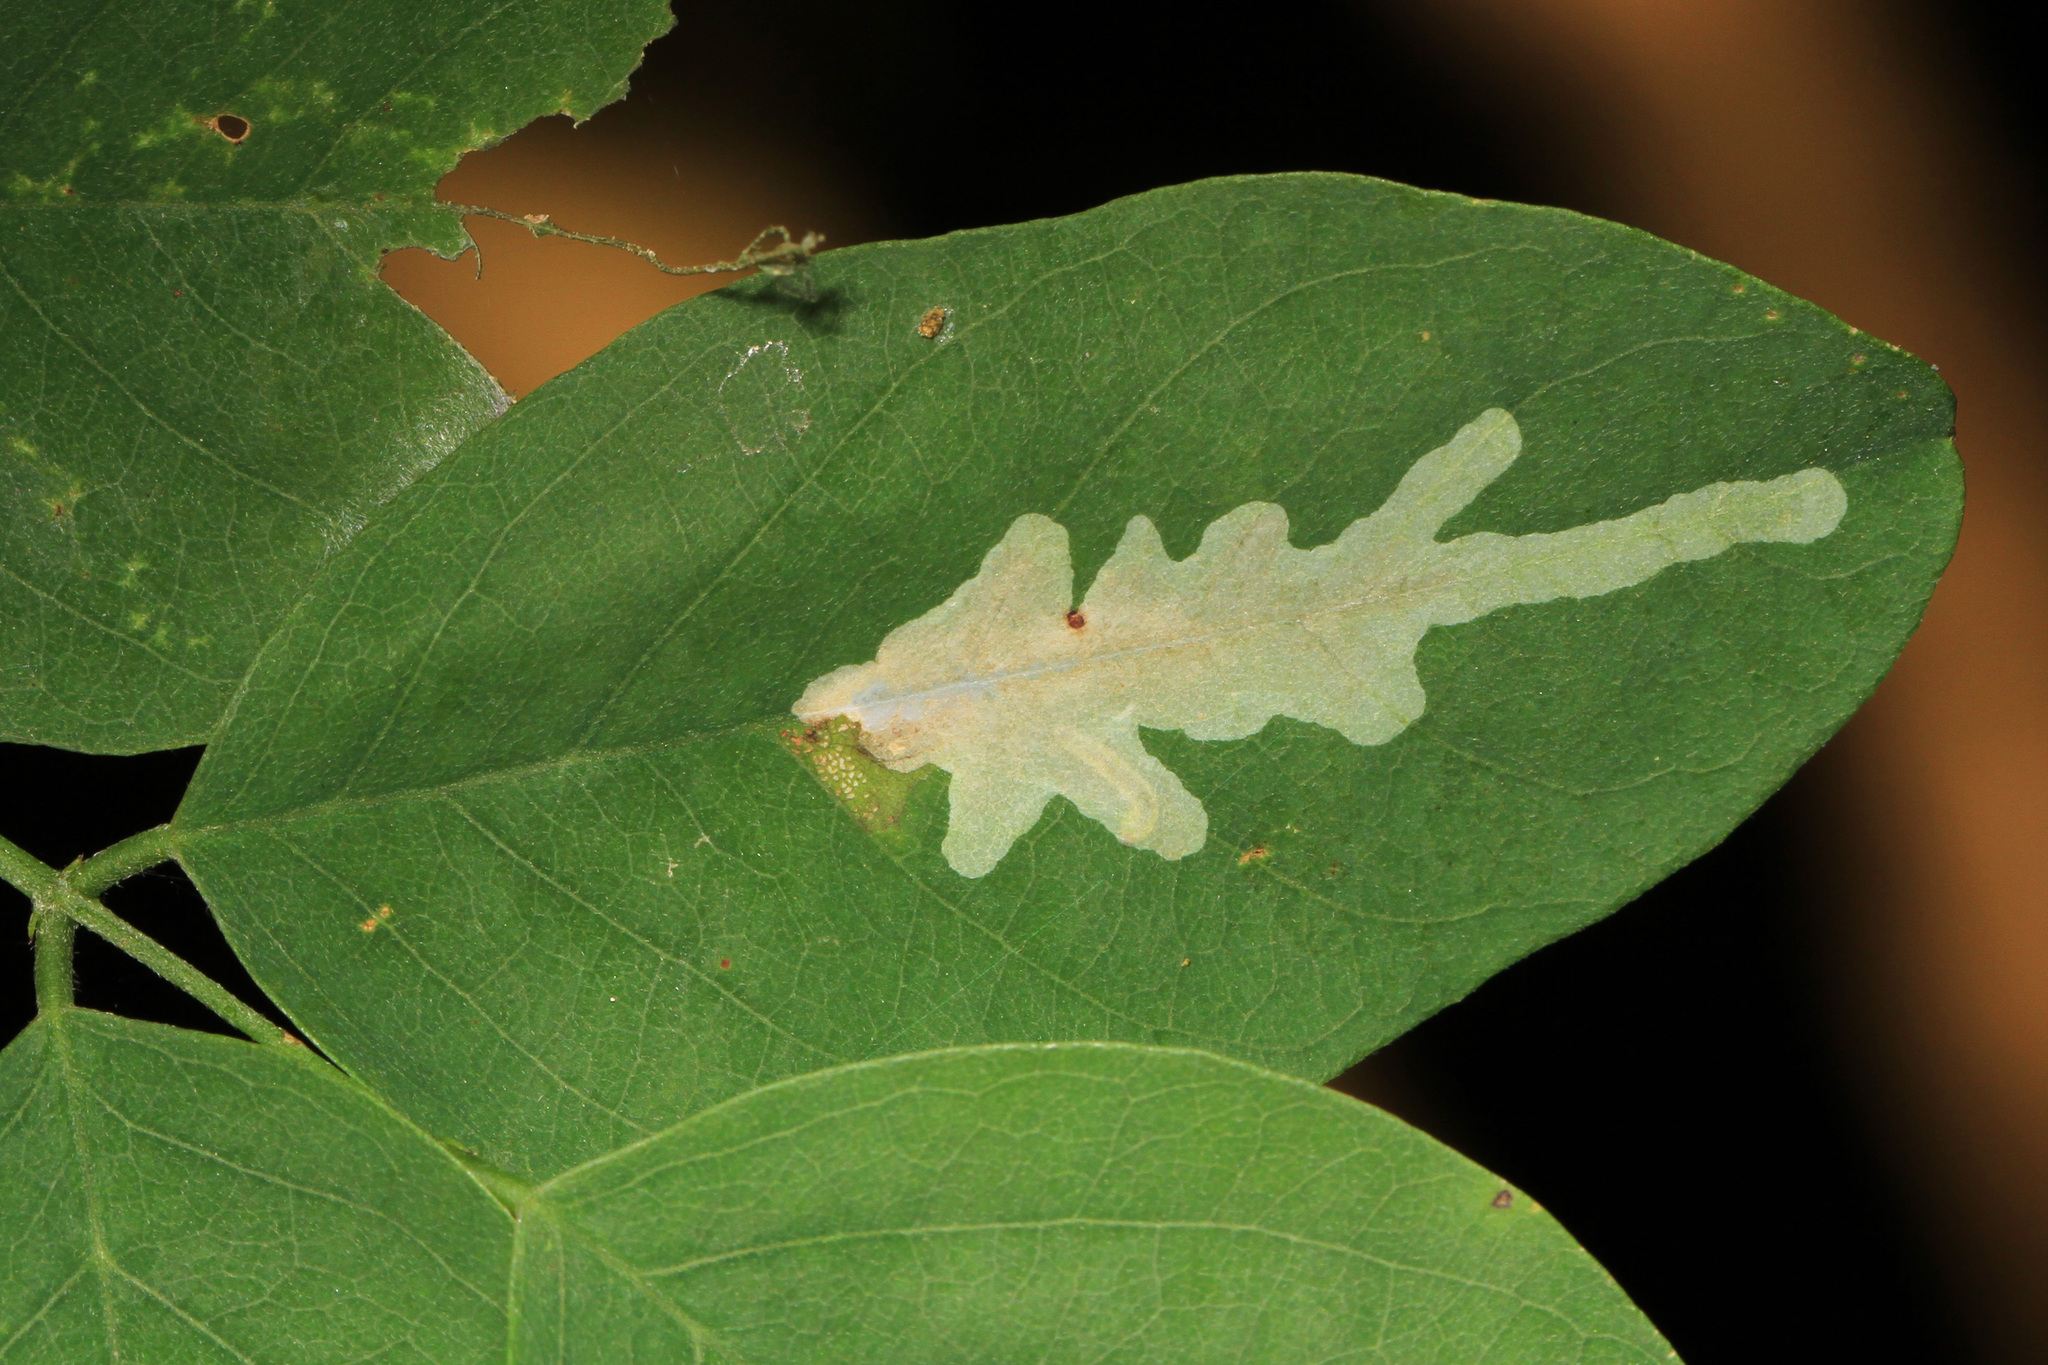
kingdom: Animalia
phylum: Arthropoda
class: Insecta
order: Lepidoptera
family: Gracillariidae
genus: Parectopa
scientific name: Parectopa robiniella
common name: Locust digitate leafminer
